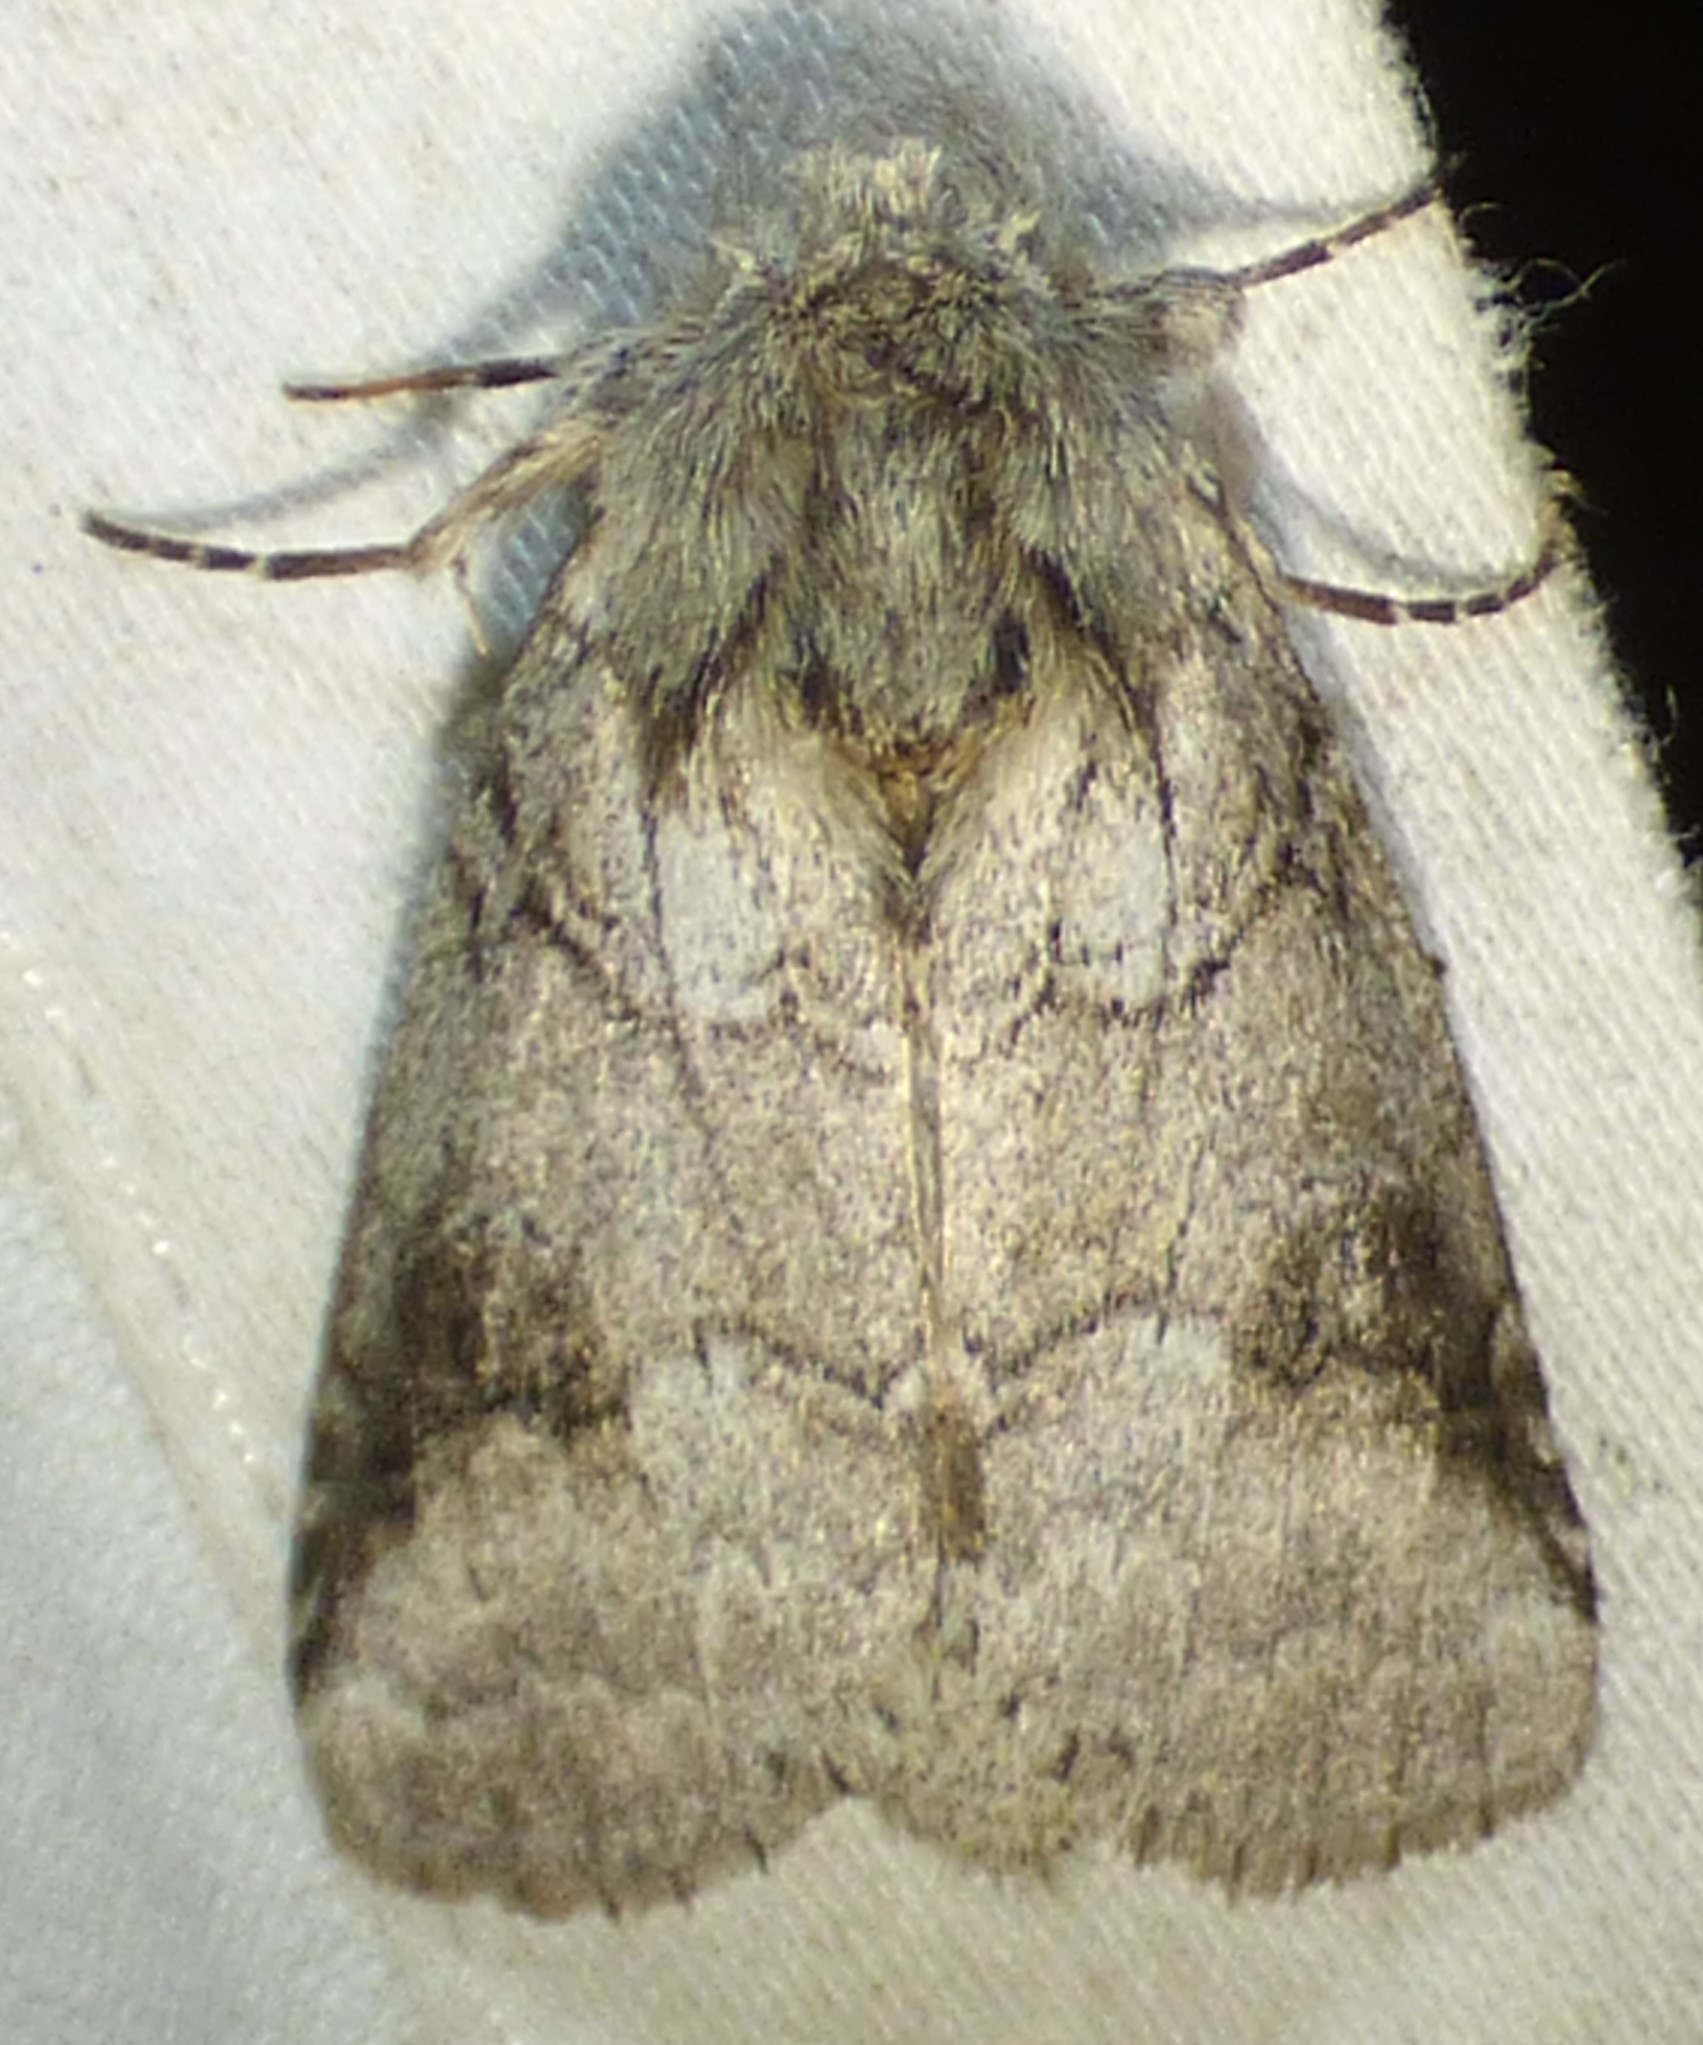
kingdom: Animalia
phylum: Arthropoda
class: Insecta
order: Lepidoptera
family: Notodontidae
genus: Lochmaeus
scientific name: Lochmaeus bilineata
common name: Double-lined prominent
